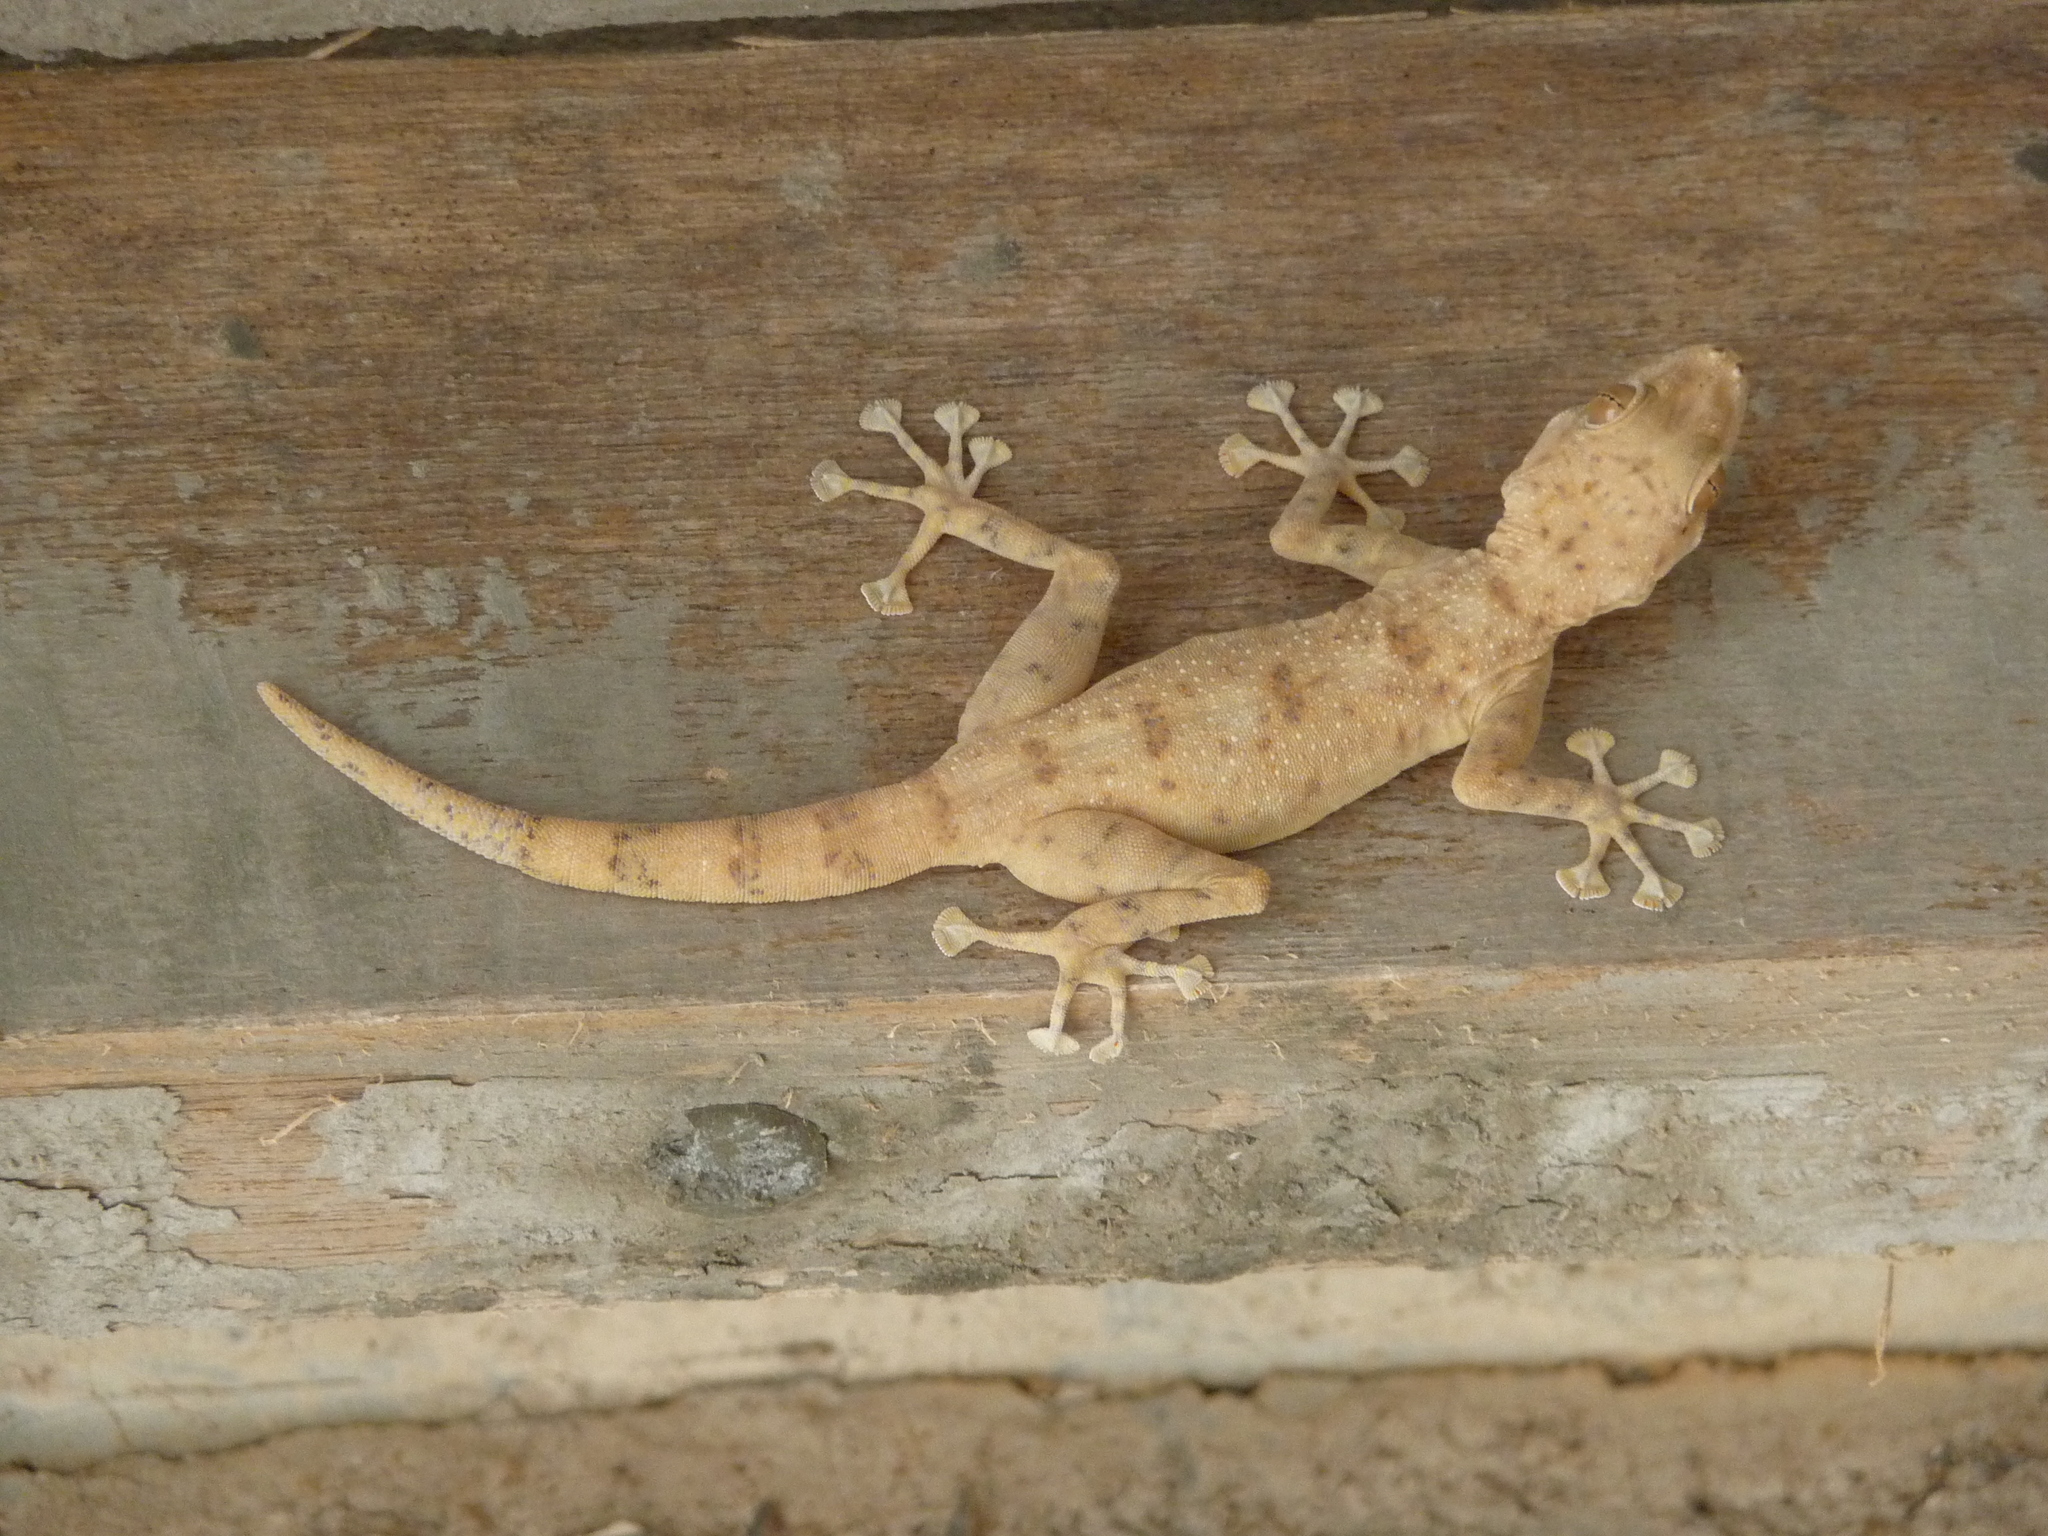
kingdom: Animalia
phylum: Chordata
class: Squamata
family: Phyllodactylidae
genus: Ptyodactylus
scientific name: Ptyodactylus dhofarensis
